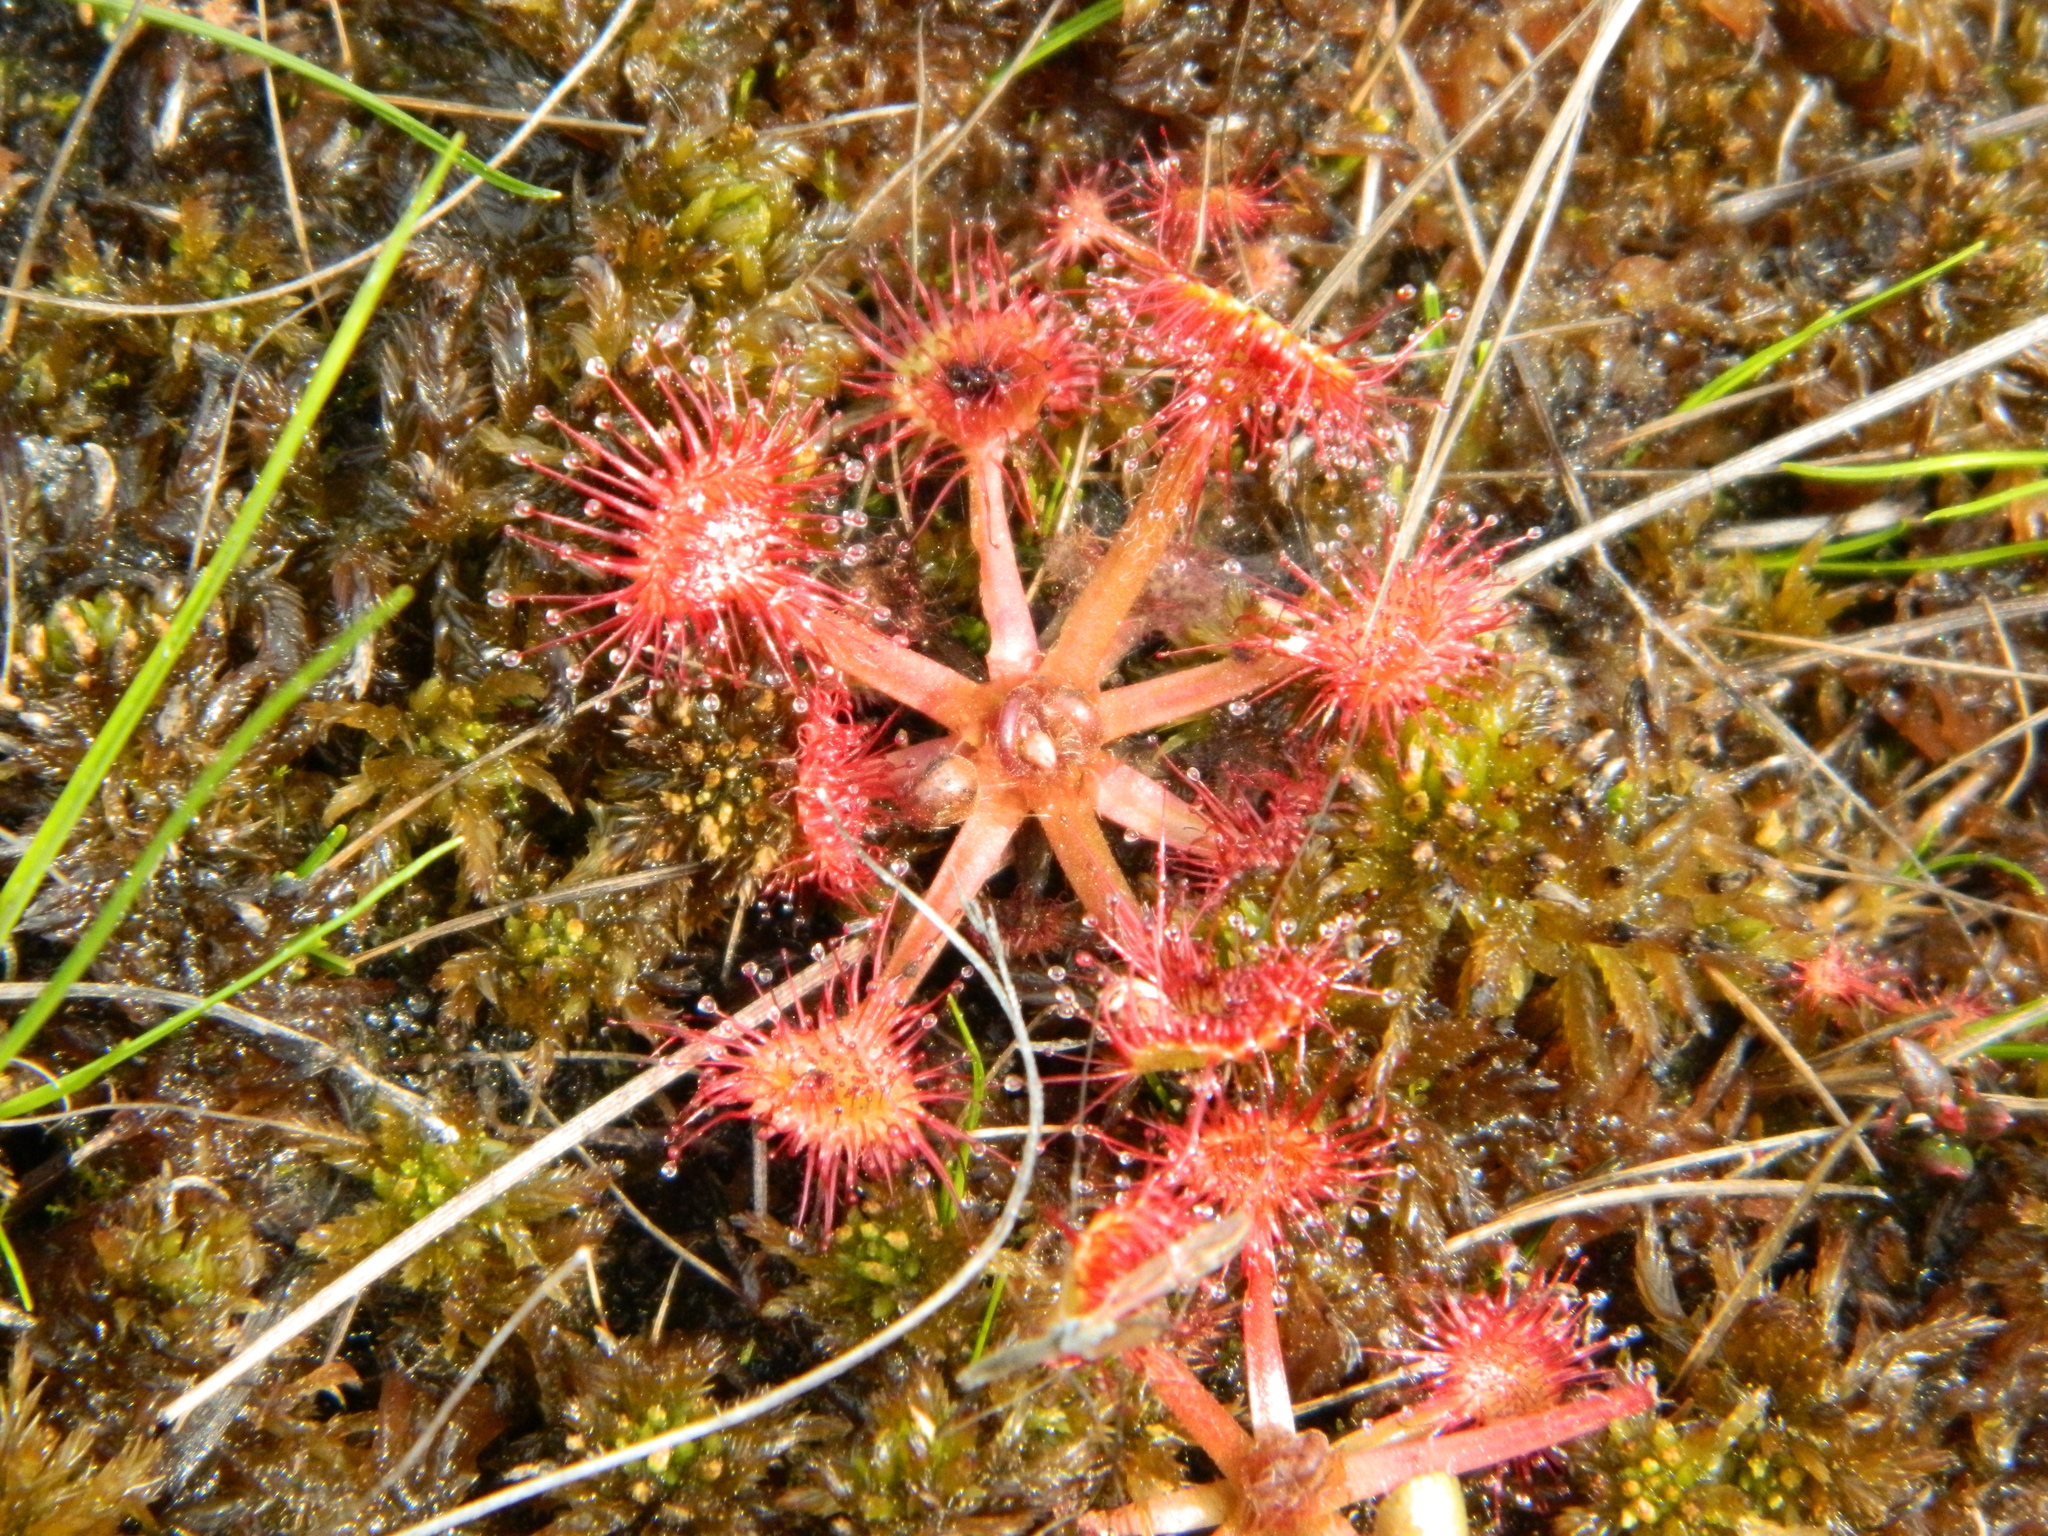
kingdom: Plantae
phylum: Tracheophyta
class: Magnoliopsida
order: Caryophyllales
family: Droseraceae
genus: Drosera
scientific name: Drosera rotundifolia
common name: Round-leaved sundew
